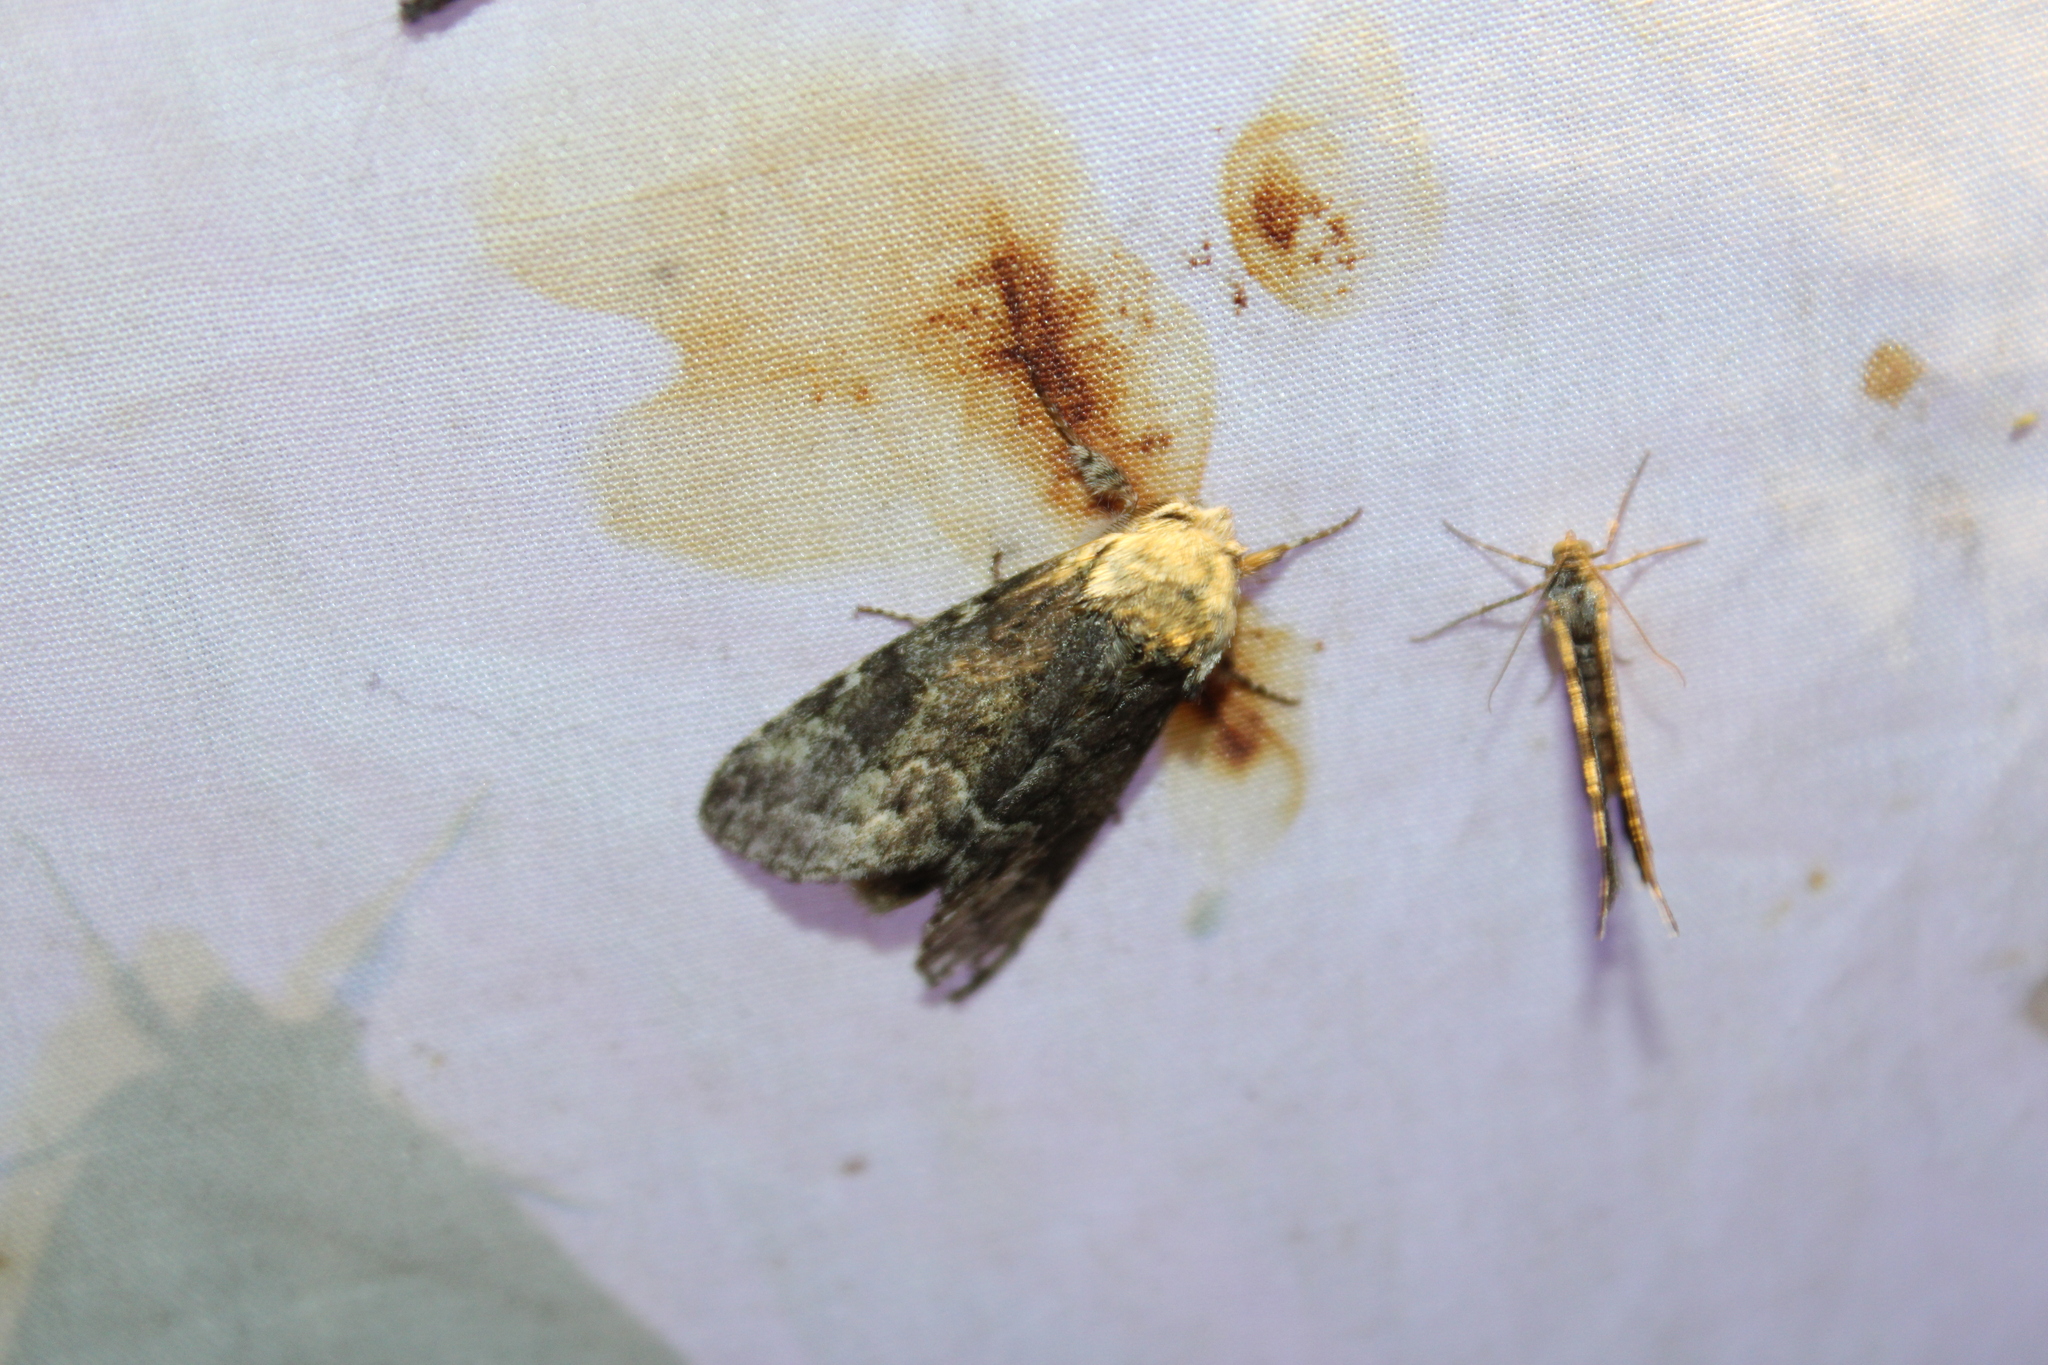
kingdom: Animalia
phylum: Arthropoda
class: Insecta
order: Lepidoptera
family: Notodontidae
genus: Macrurocampa
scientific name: Macrurocampa marthesia
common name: Mottled prominent
